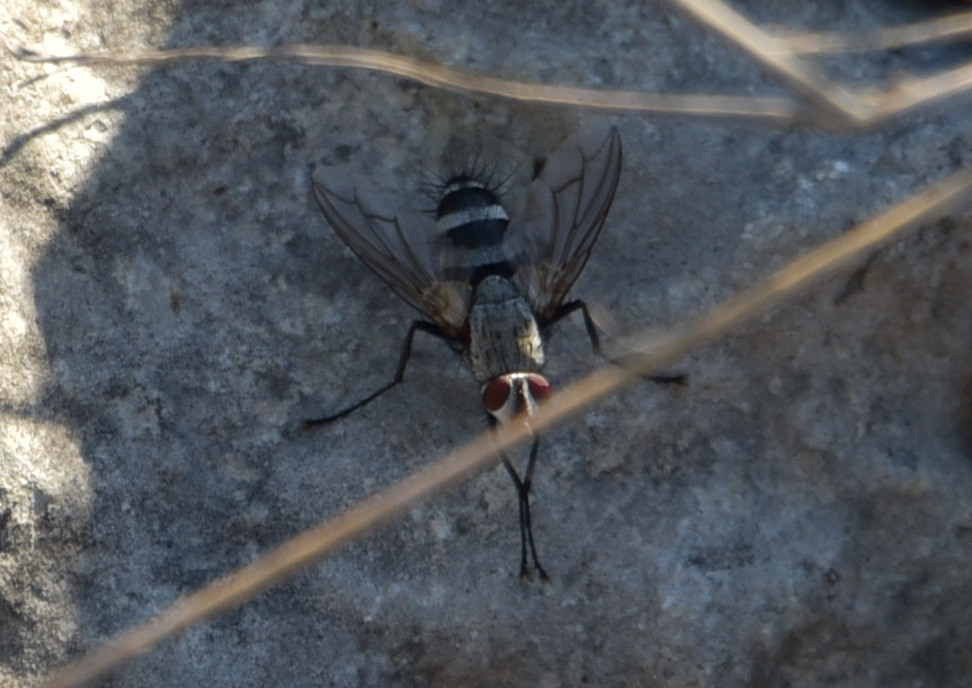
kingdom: Animalia
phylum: Arthropoda
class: Insecta
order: Diptera
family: Tachinidae
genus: Microphthalma
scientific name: Microphthalma disjuncta
